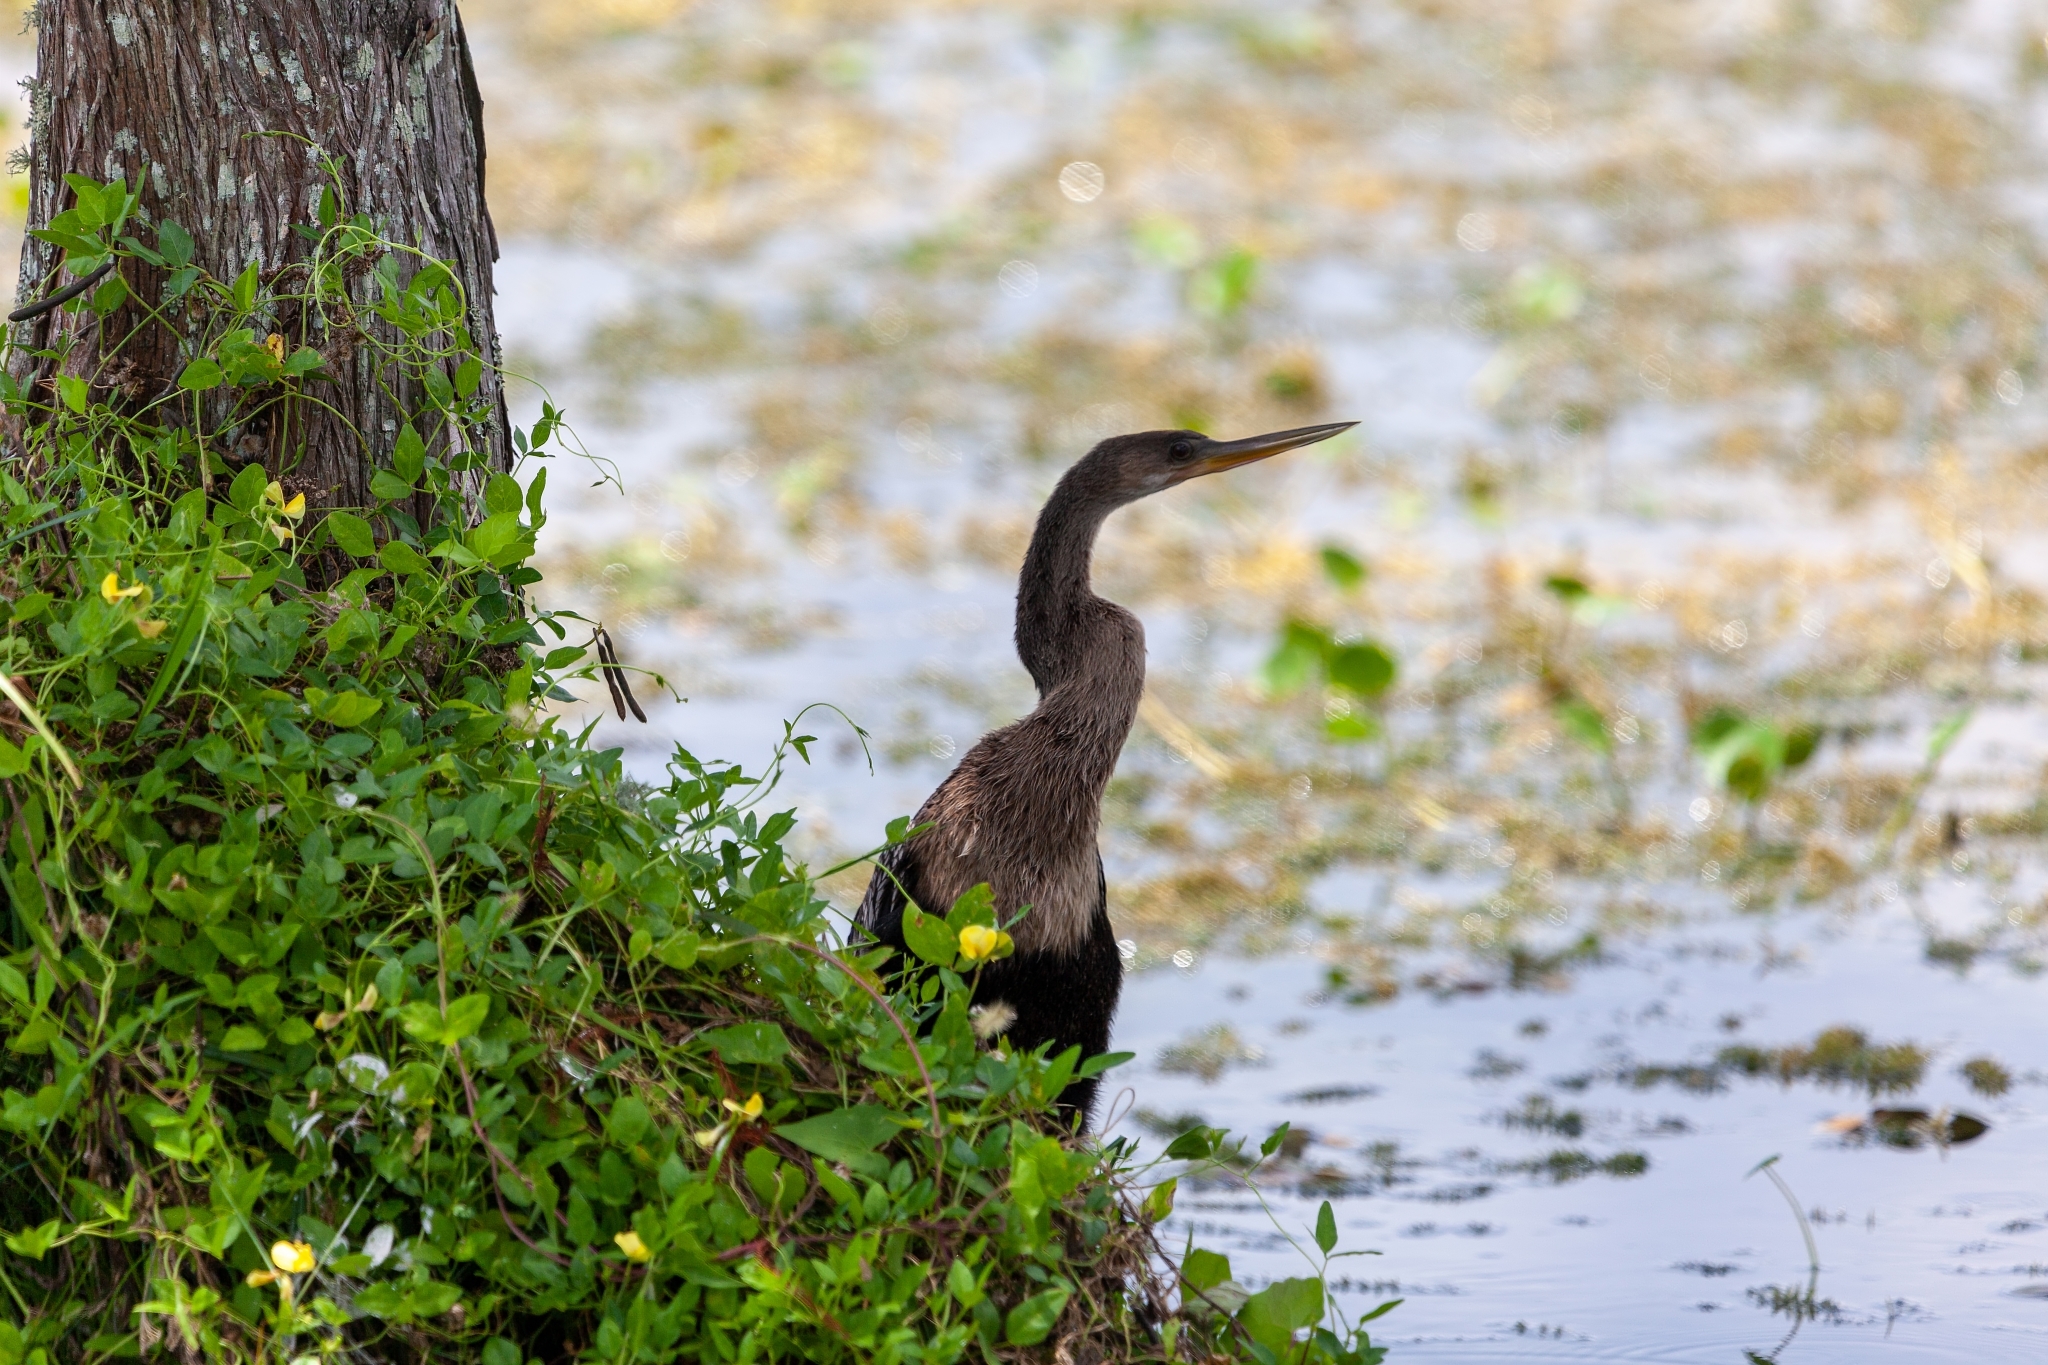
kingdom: Animalia
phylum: Chordata
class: Aves
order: Suliformes
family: Anhingidae
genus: Anhinga
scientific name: Anhinga anhinga
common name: Anhinga
